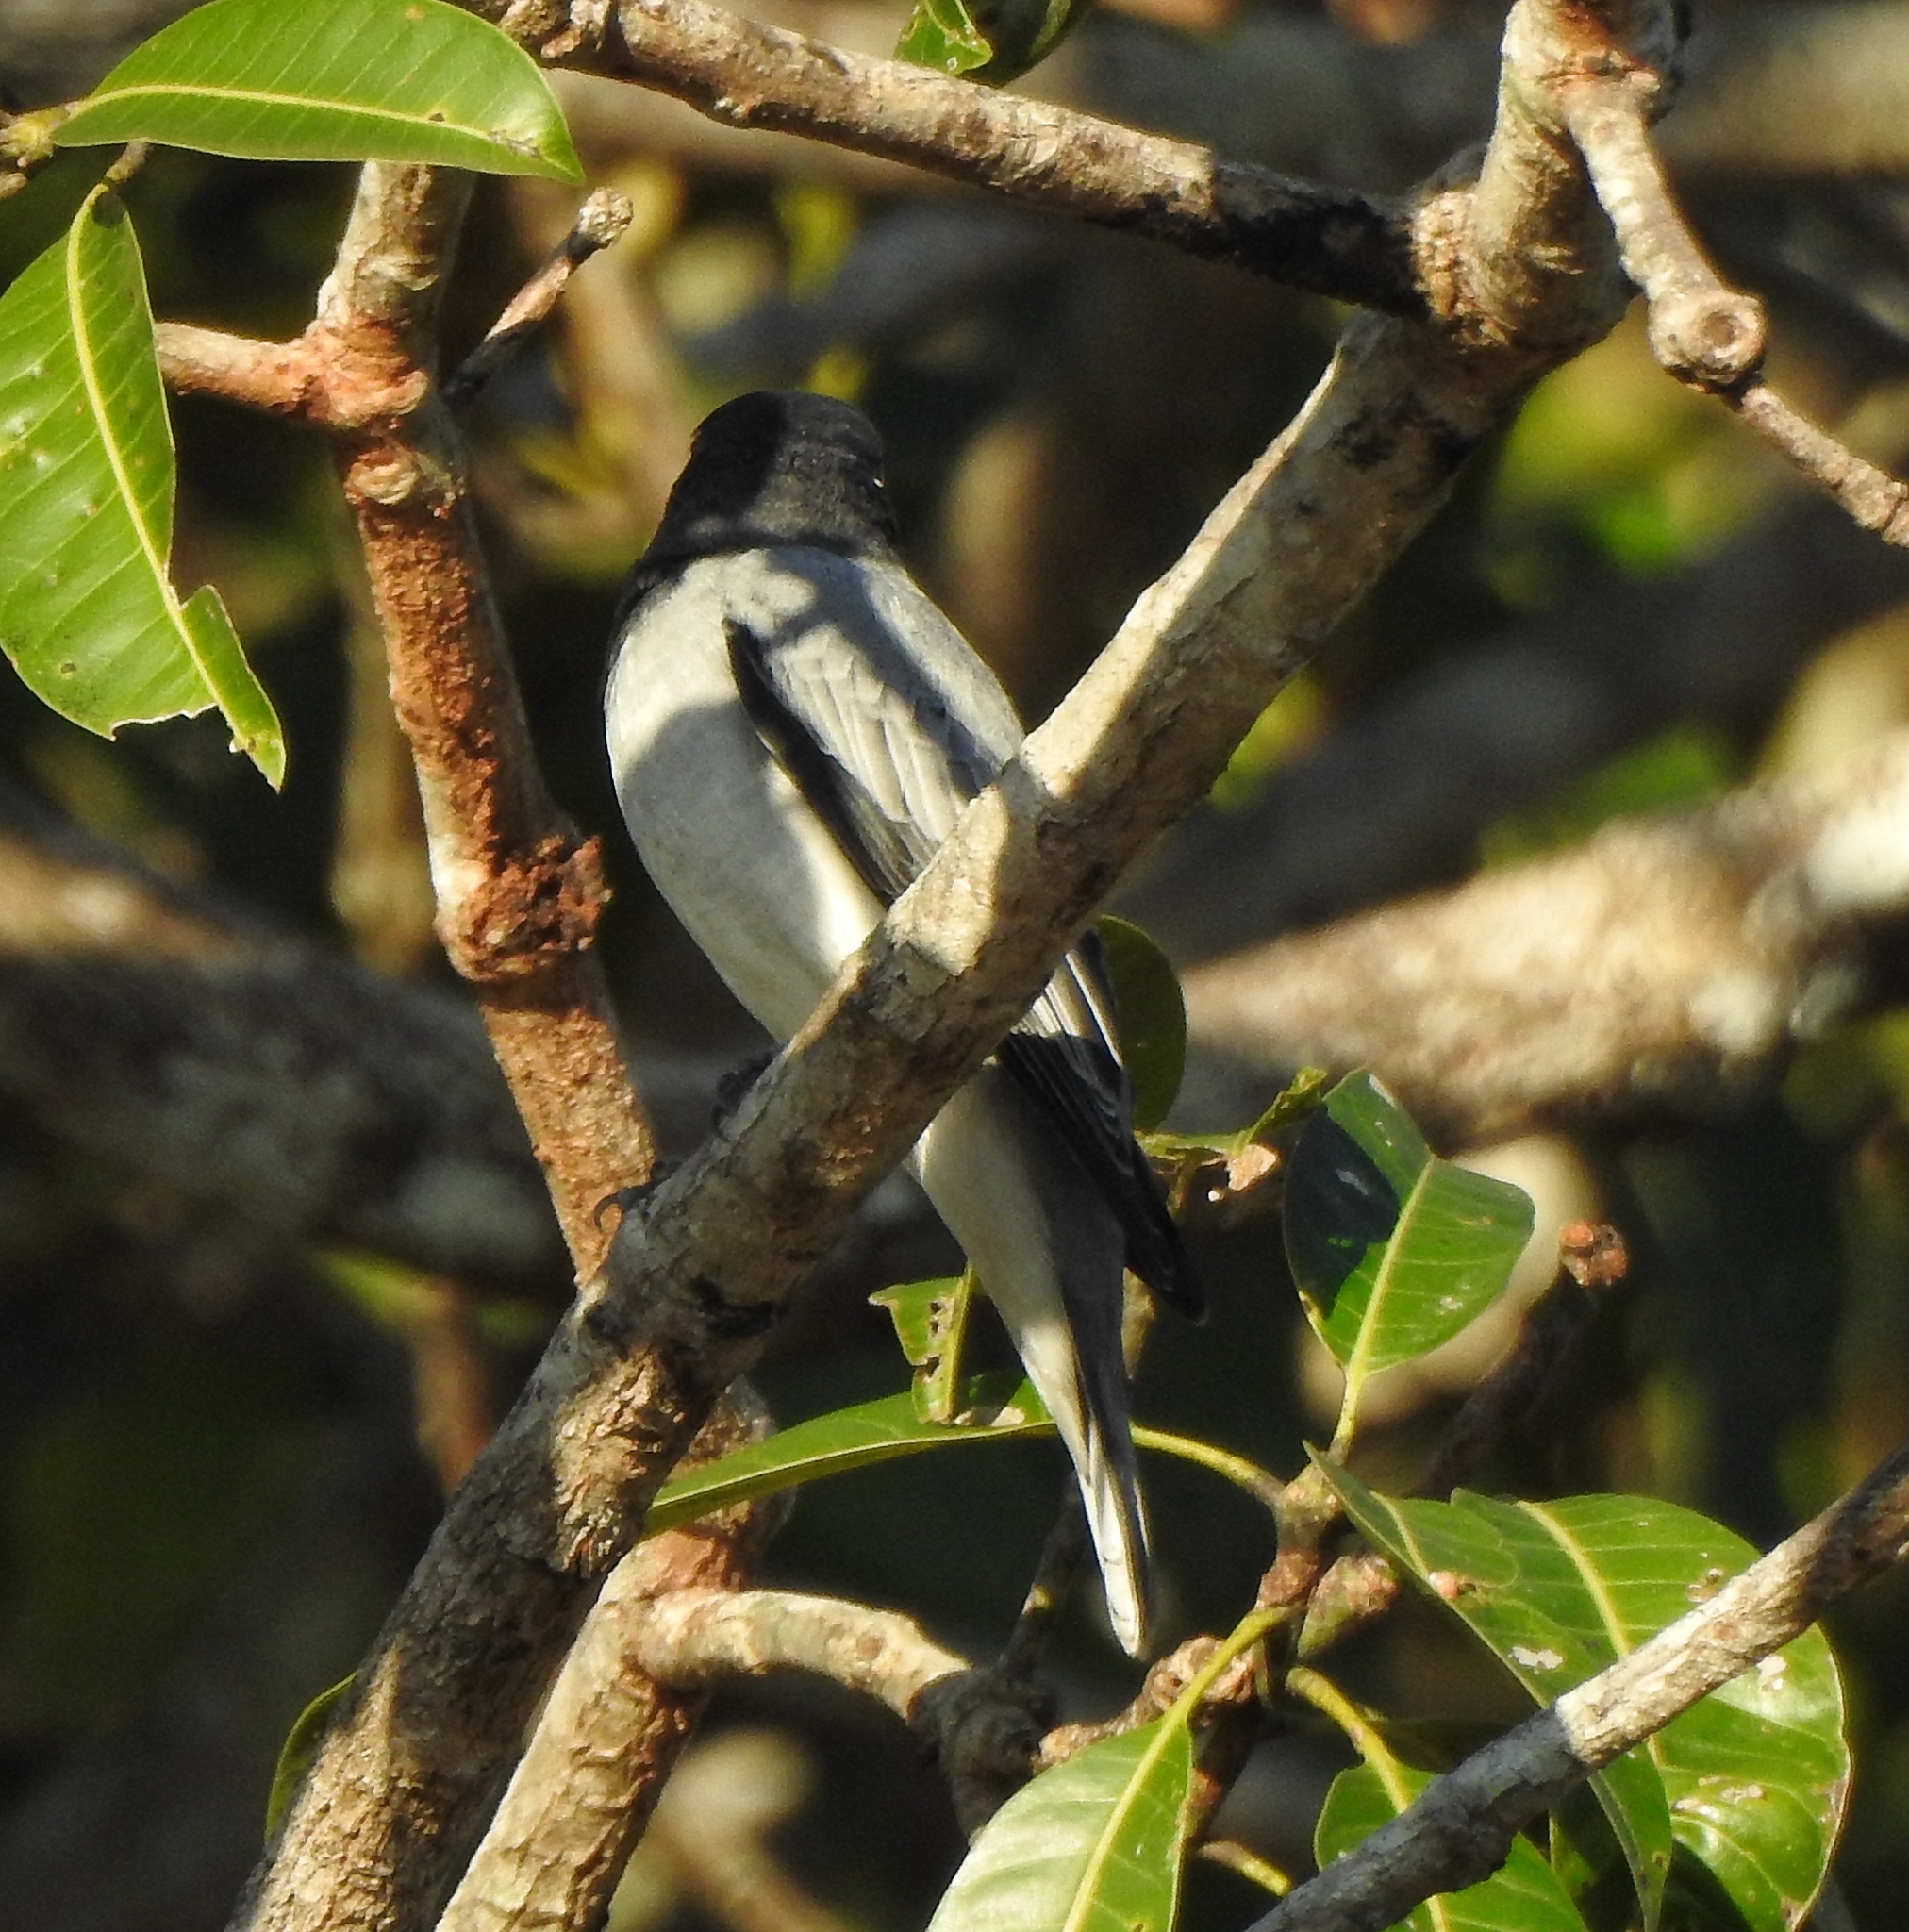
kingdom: Animalia
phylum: Chordata
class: Aves
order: Passeriformes
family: Campephagidae
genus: Coracina
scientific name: Coracina melanoptera
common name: Black-headed cuckooshrike
